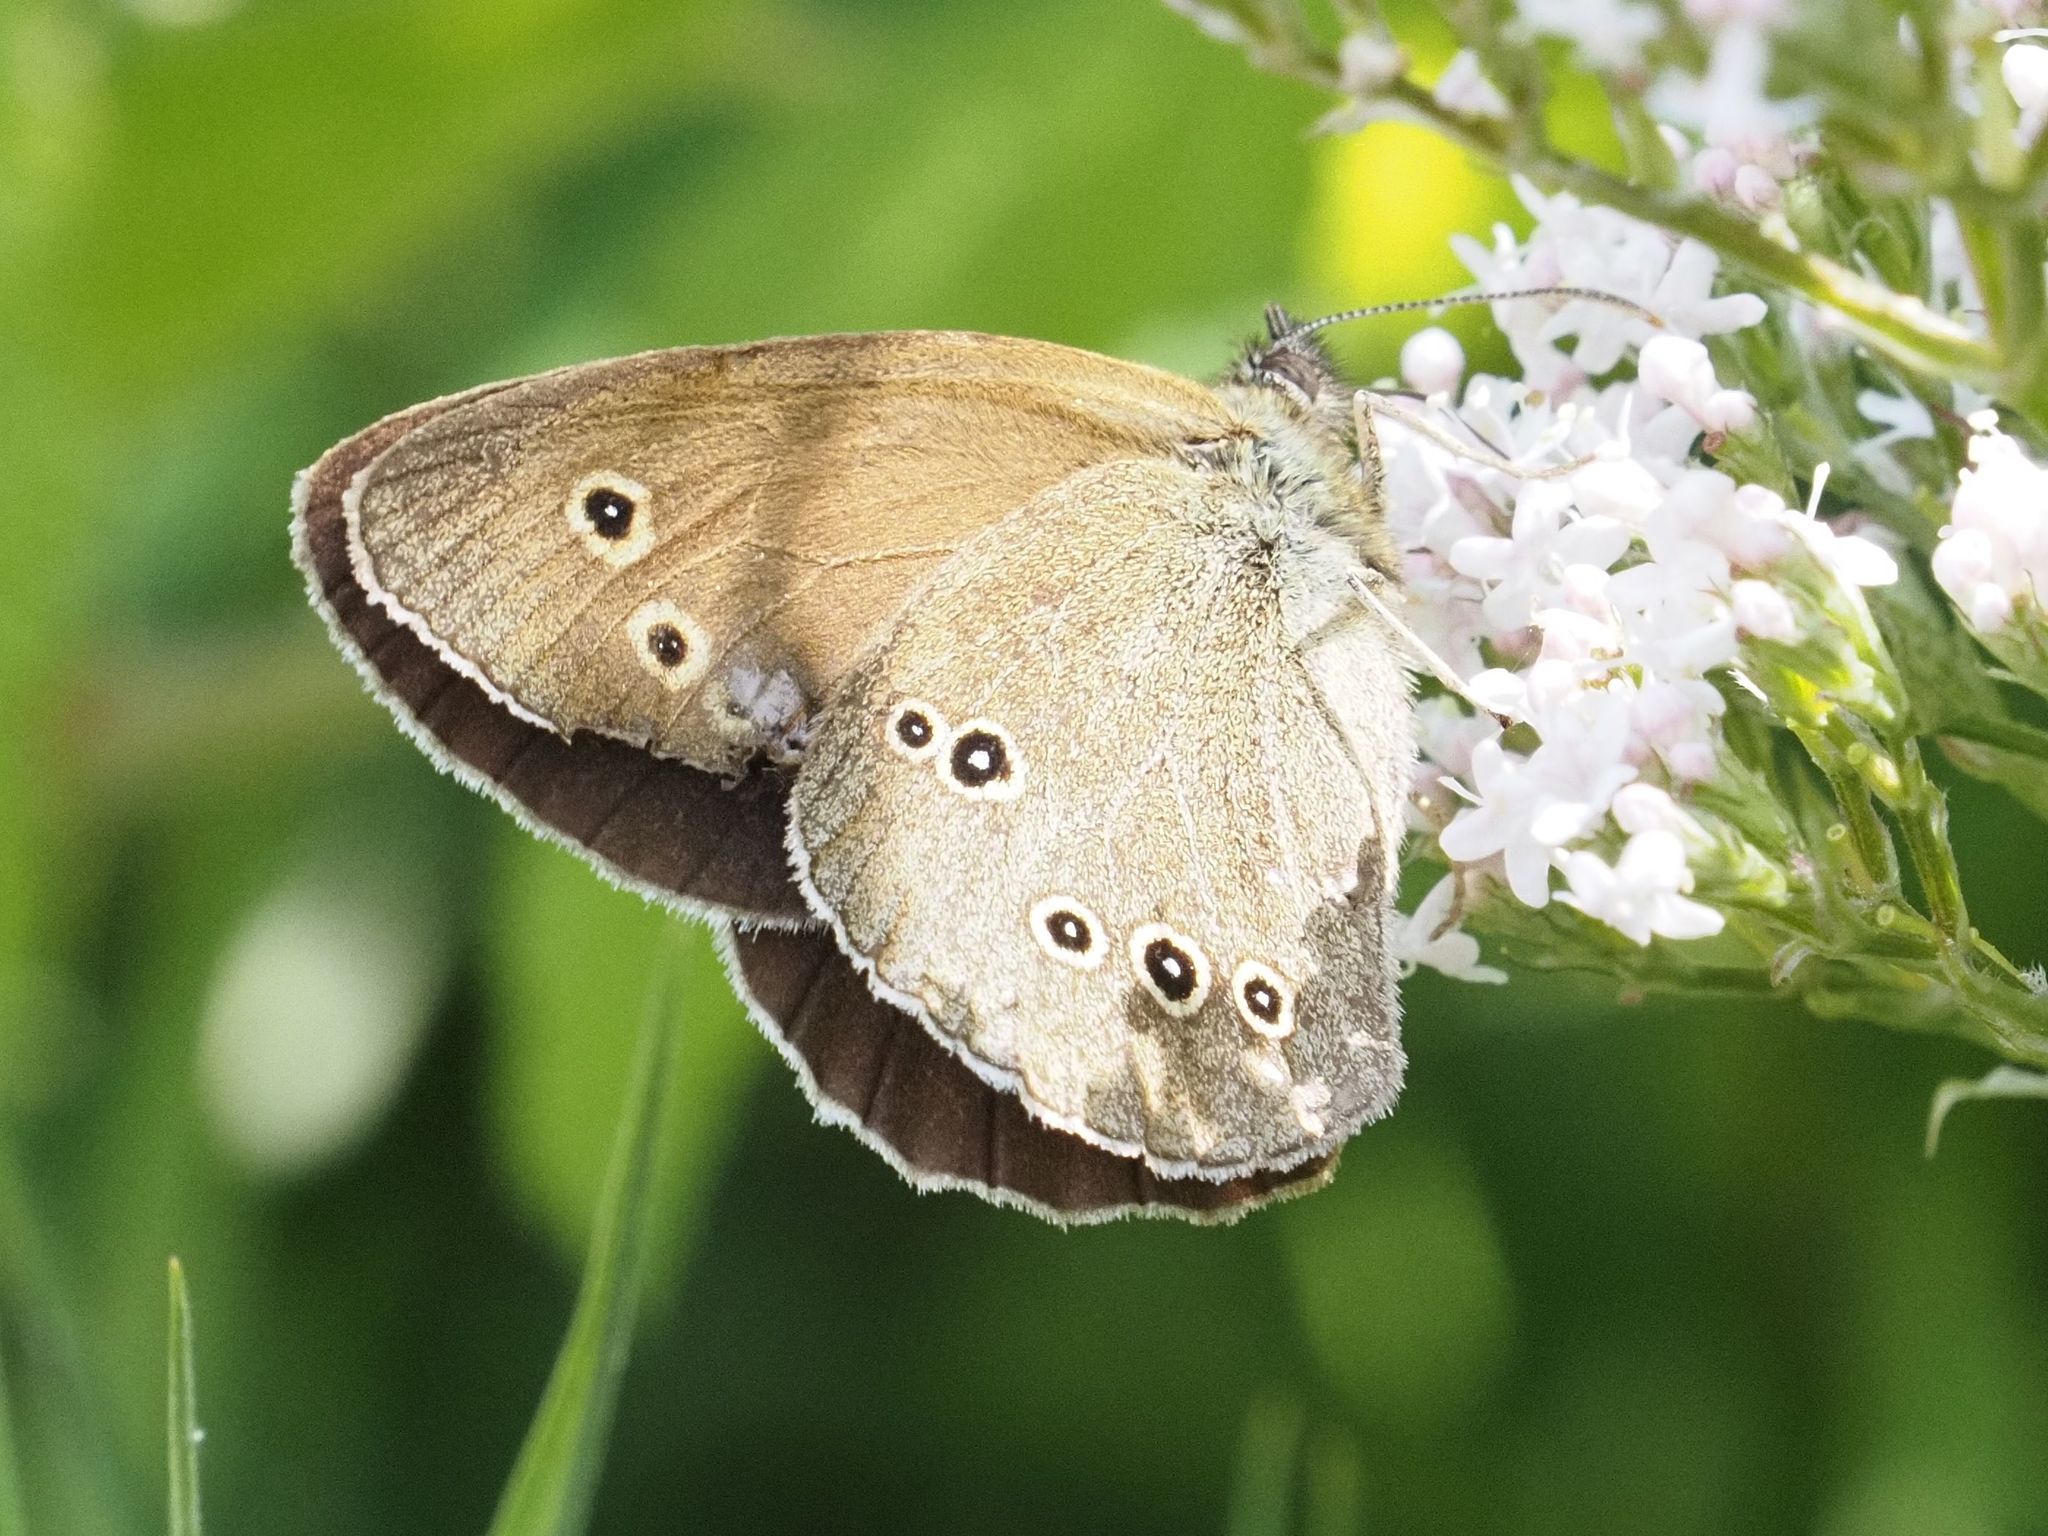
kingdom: Animalia
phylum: Arthropoda
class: Insecta
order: Lepidoptera
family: Nymphalidae
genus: Aphantopus
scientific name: Aphantopus hyperantus
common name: Ringlet
